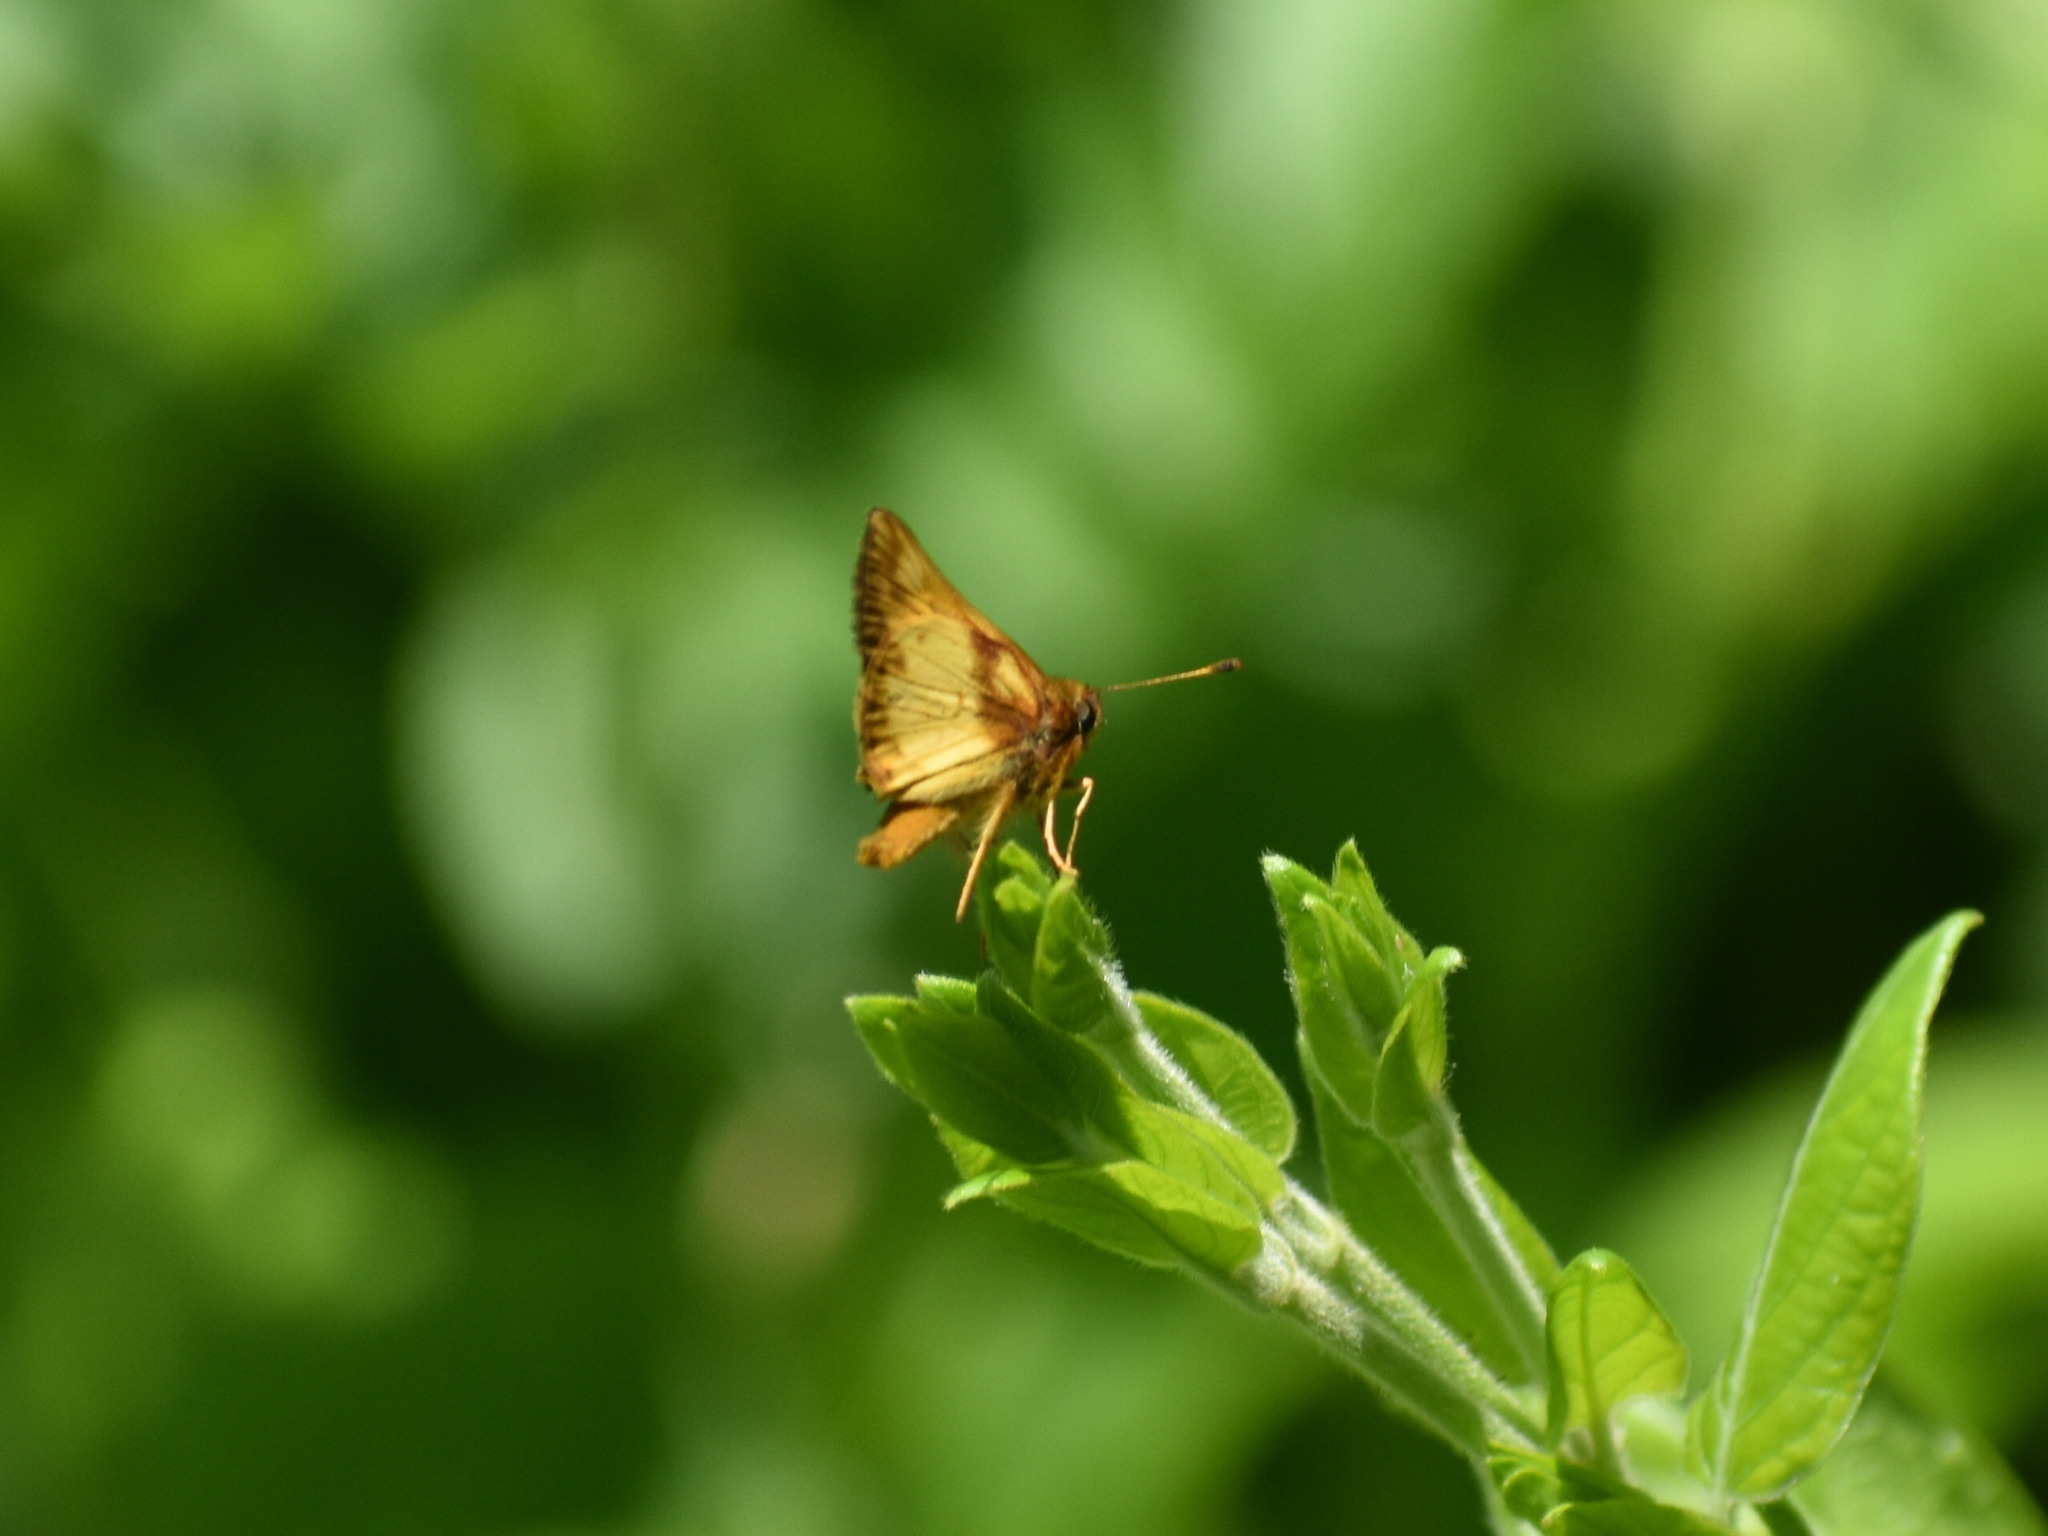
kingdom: Animalia
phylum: Arthropoda
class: Insecta
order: Lepidoptera
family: Hesperiidae
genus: Lon
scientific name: Lon zabulon
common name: Zabulon skipper
